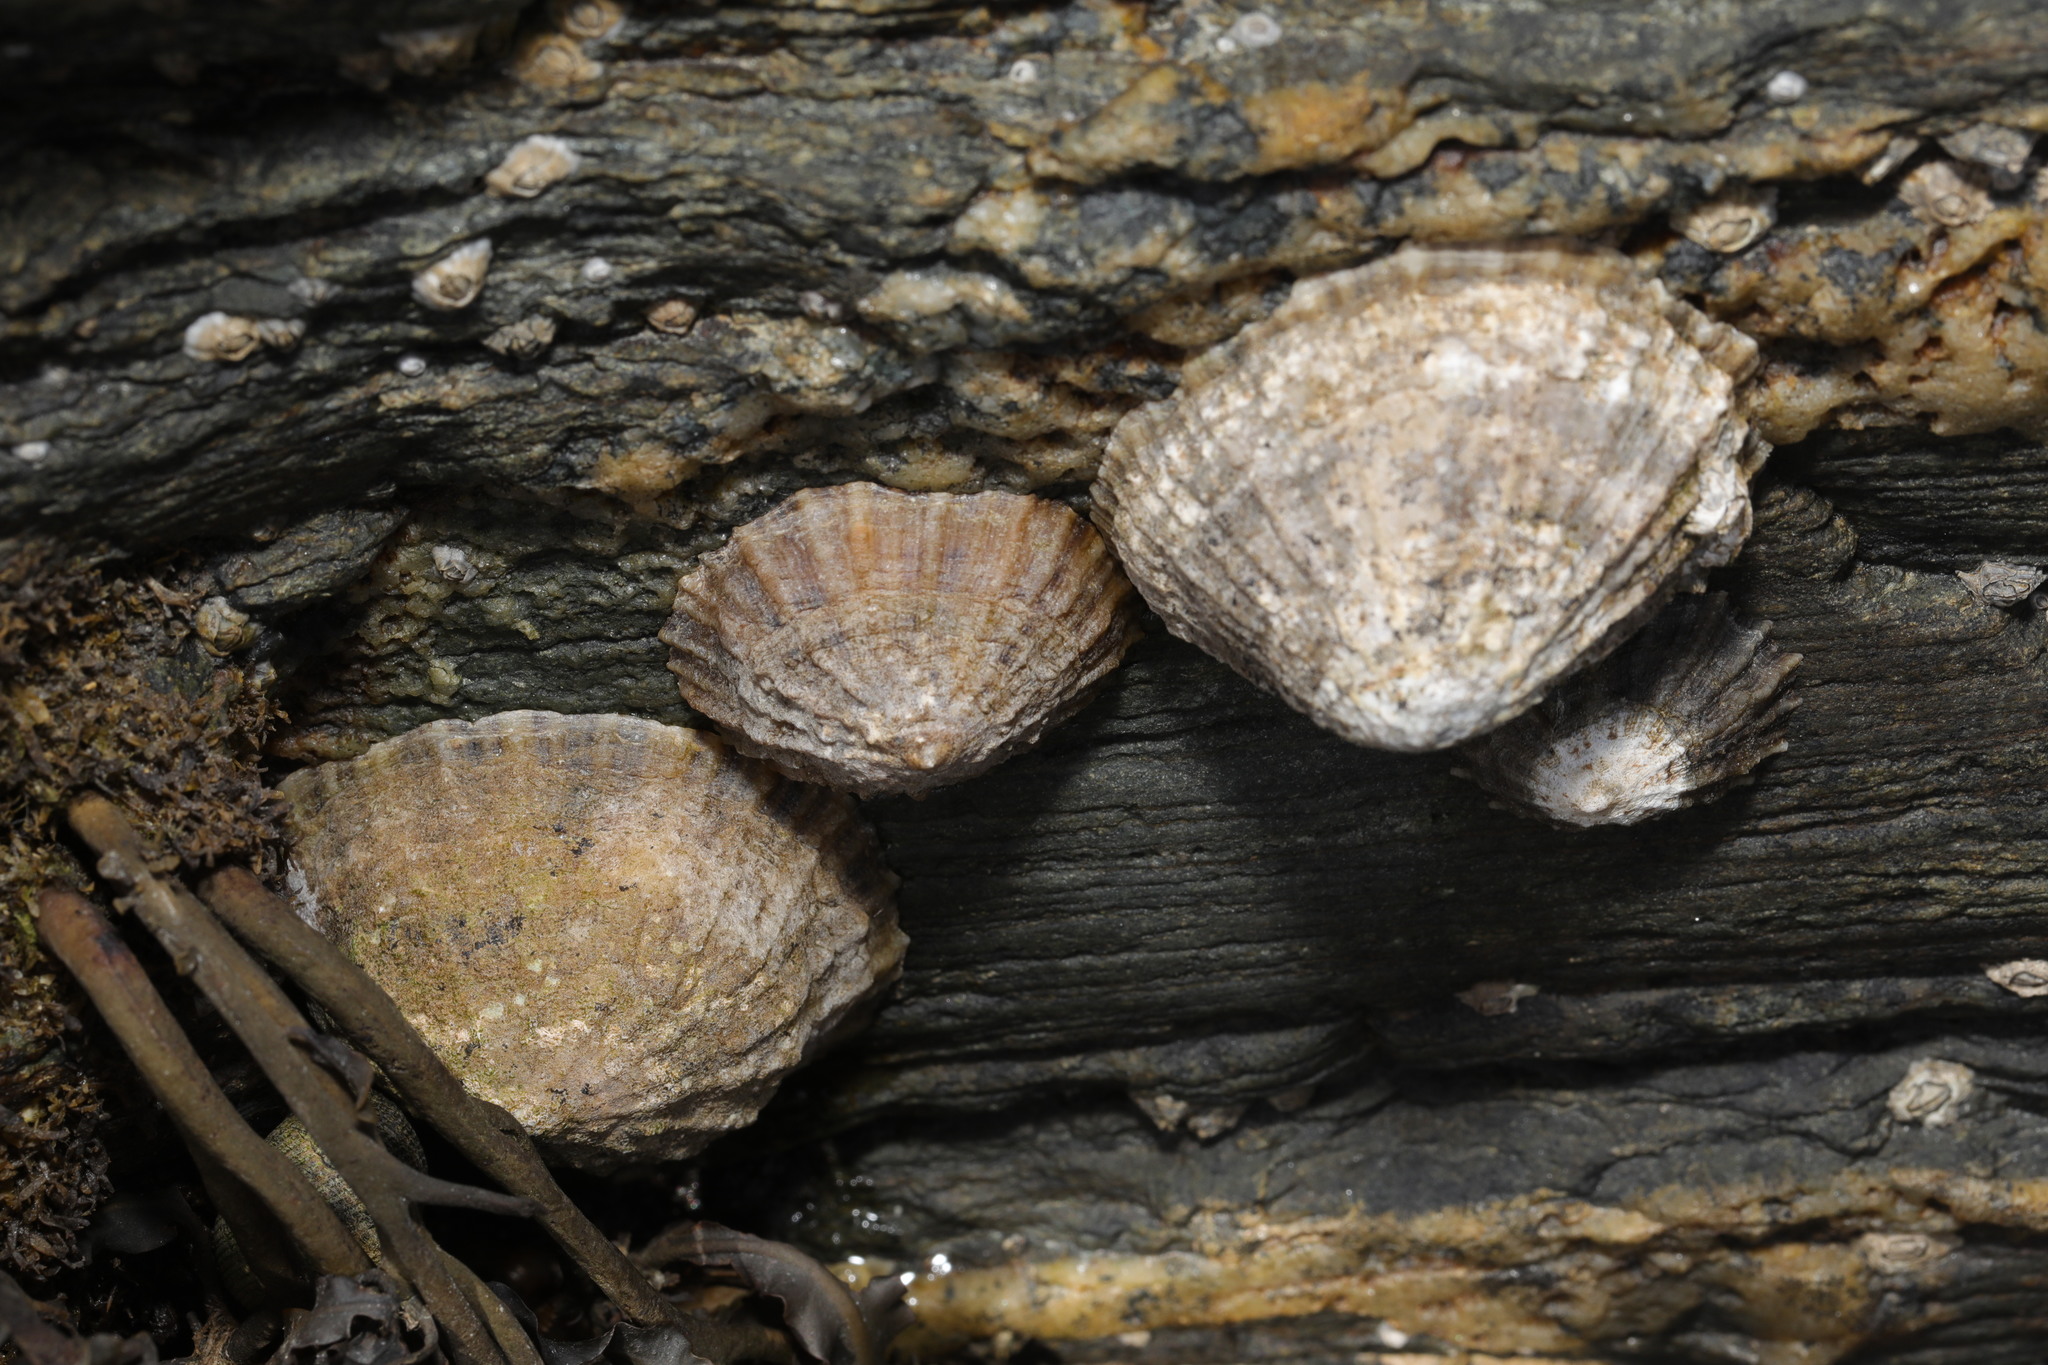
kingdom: Animalia
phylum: Mollusca
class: Gastropoda
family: Patellidae
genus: Patella
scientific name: Patella vulgata
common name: Common limpet
